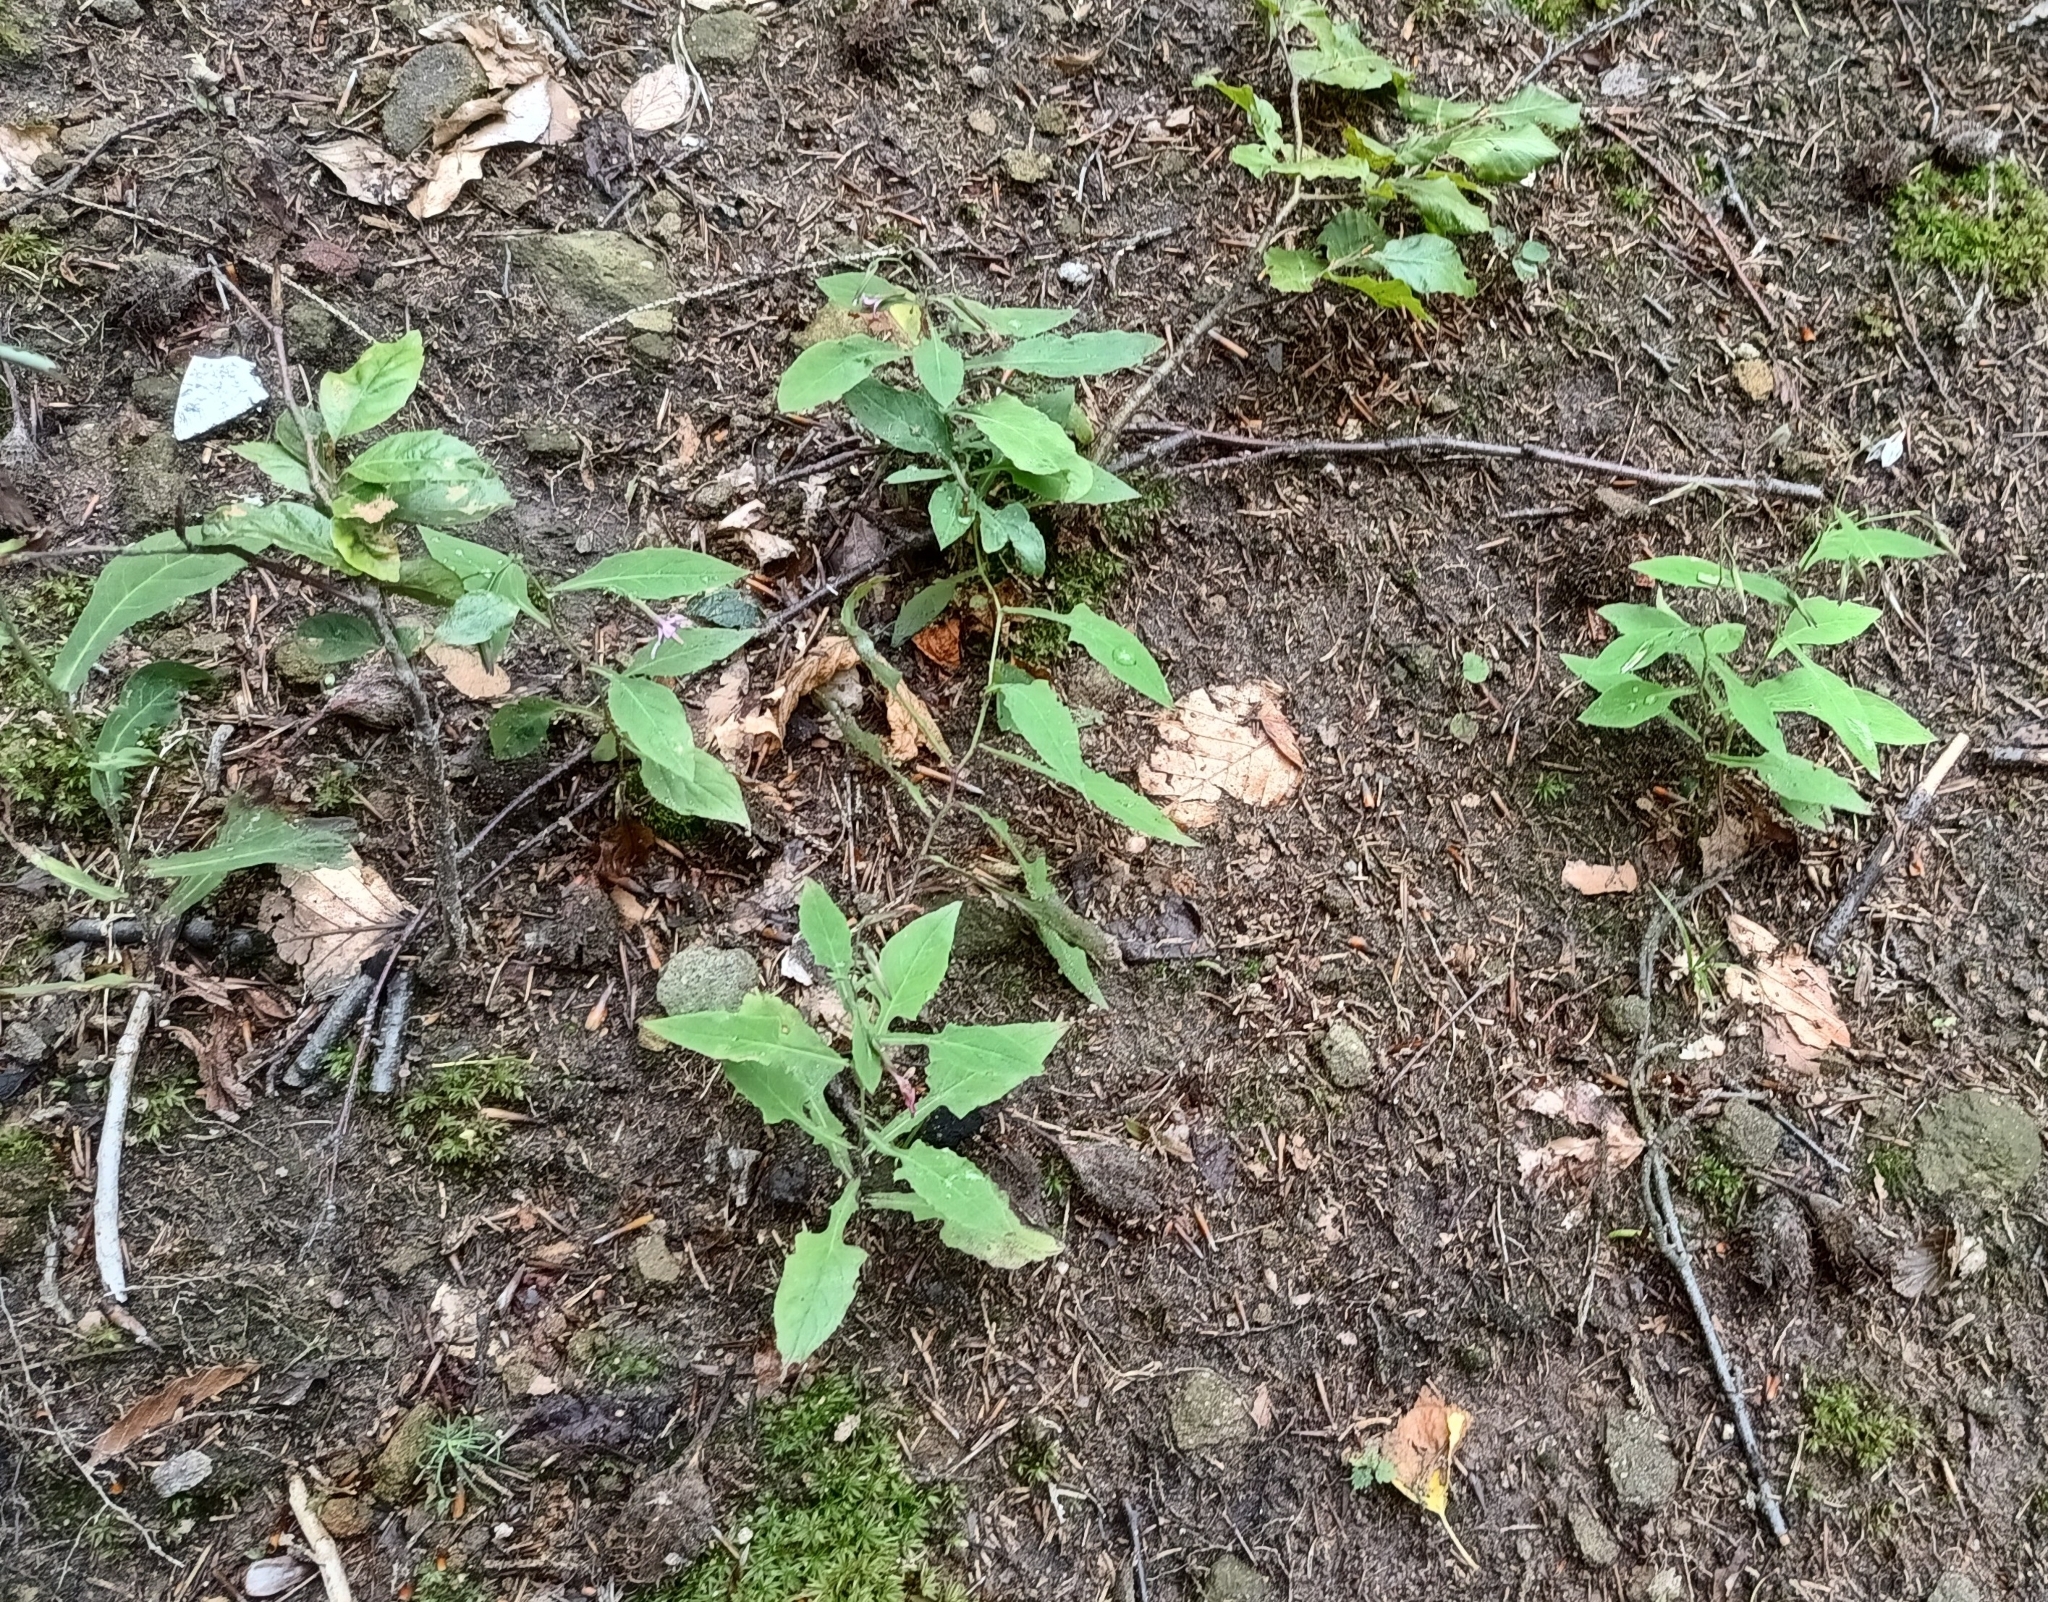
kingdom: Plantae
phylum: Tracheophyta
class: Magnoliopsida
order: Asterales
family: Asteraceae
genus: Prenanthes
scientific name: Prenanthes purpurea
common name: Purple lettuce
